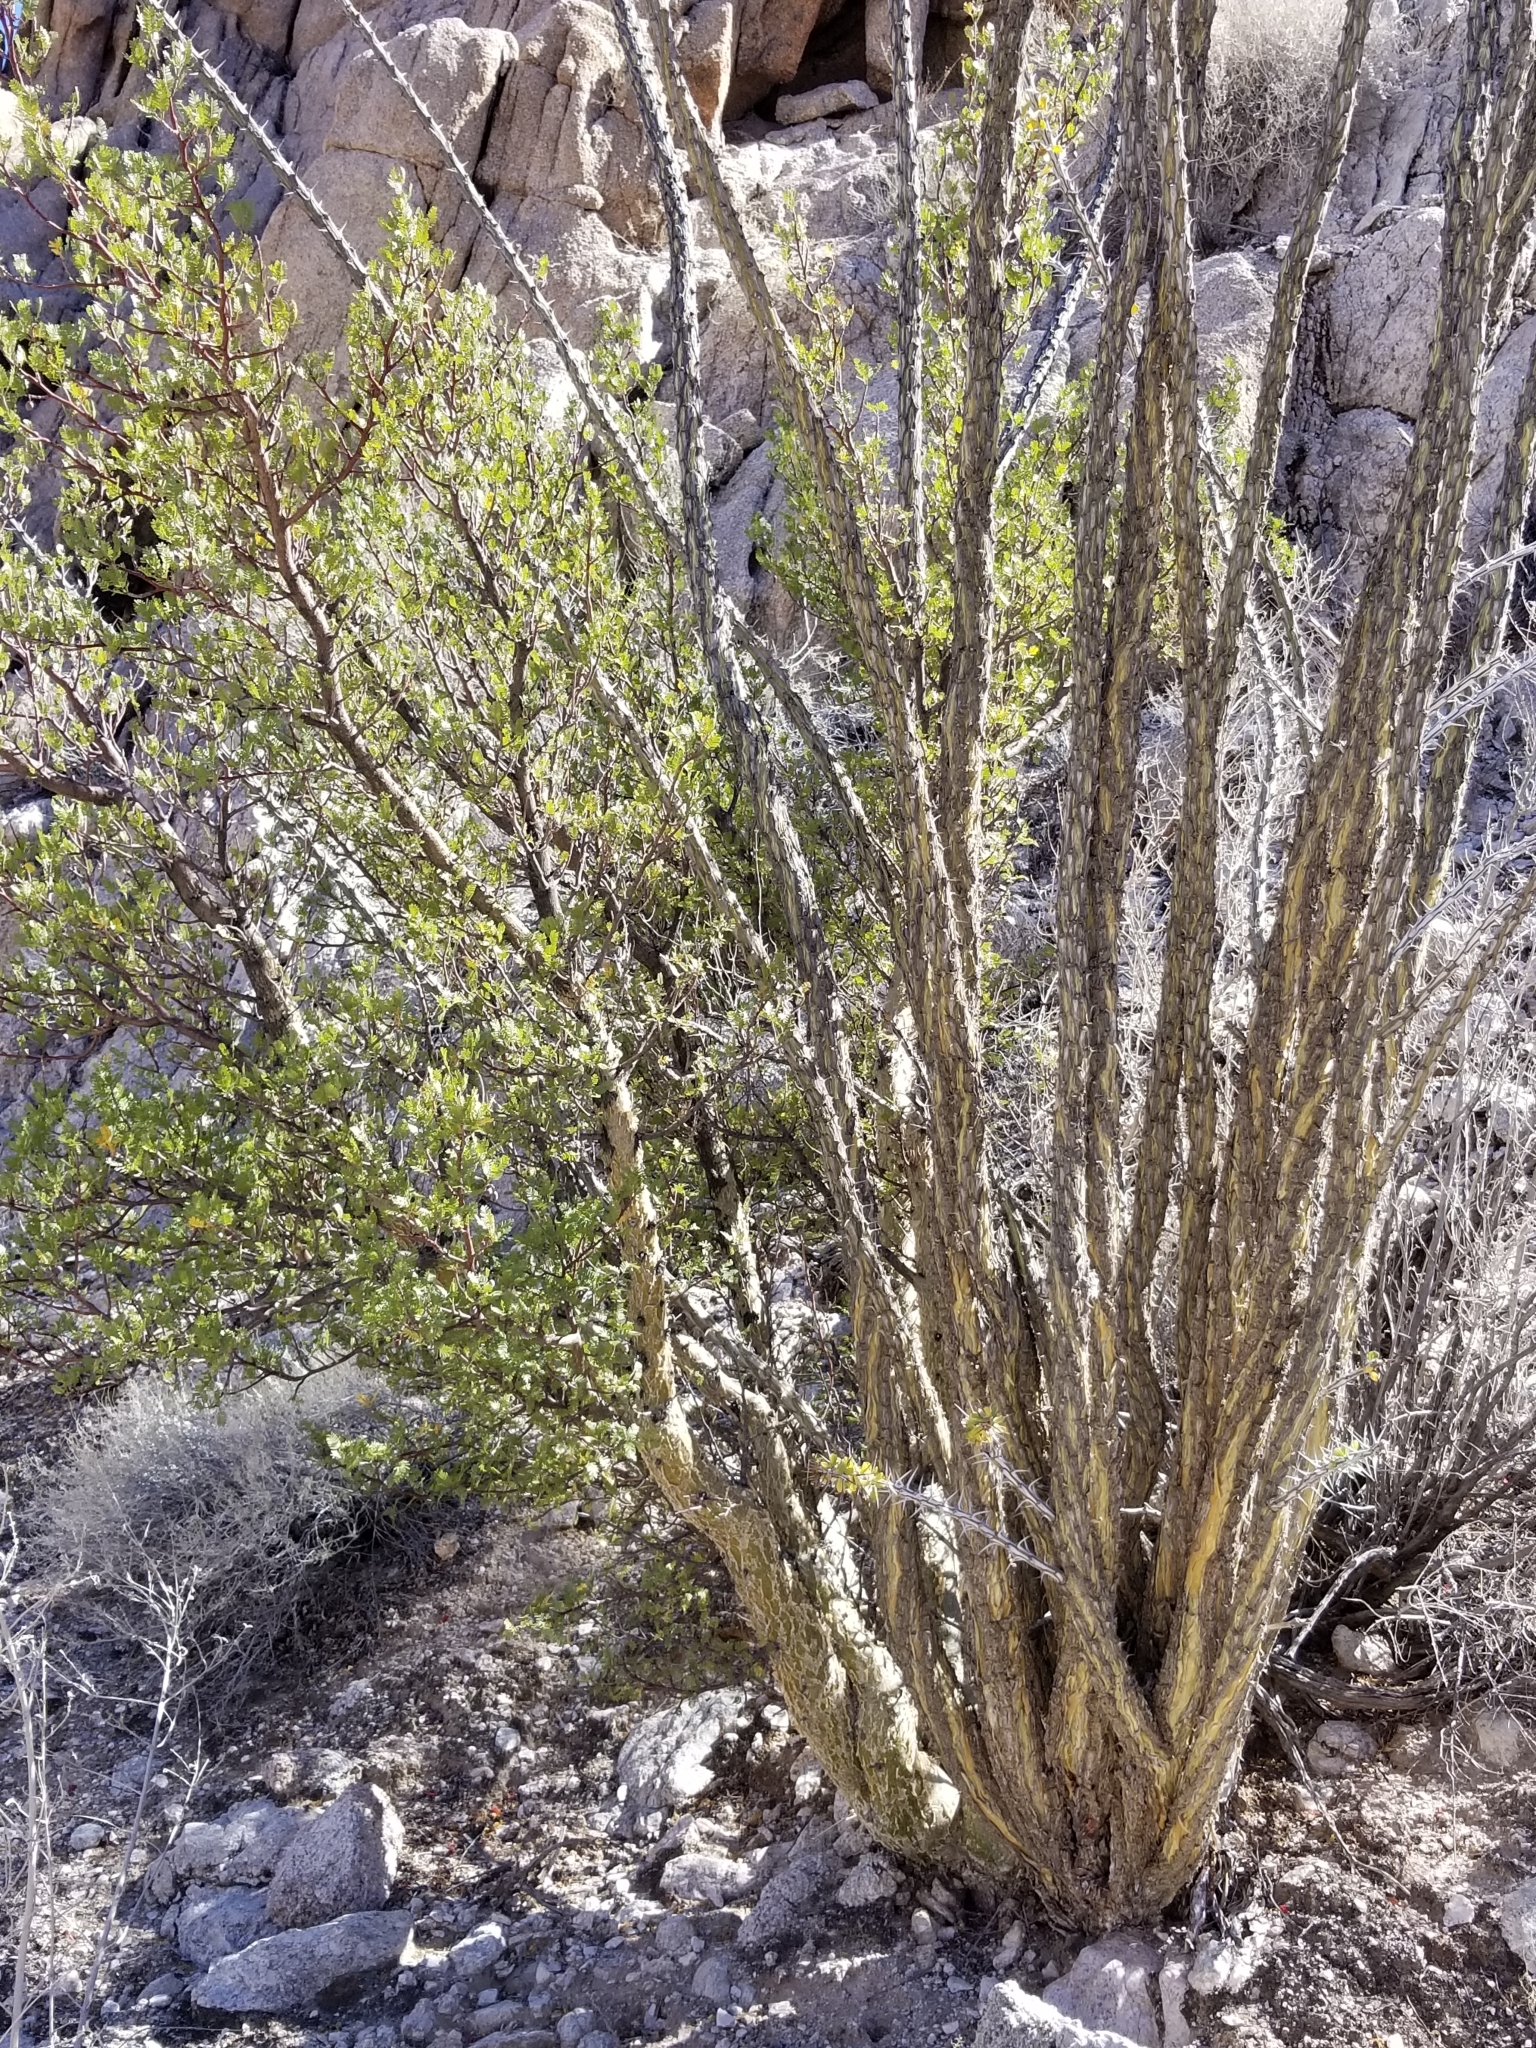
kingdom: Plantae
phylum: Tracheophyta
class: Magnoliopsida
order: Ericales
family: Fouquieriaceae
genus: Fouquieria
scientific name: Fouquieria splendens
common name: Vine-cactus
